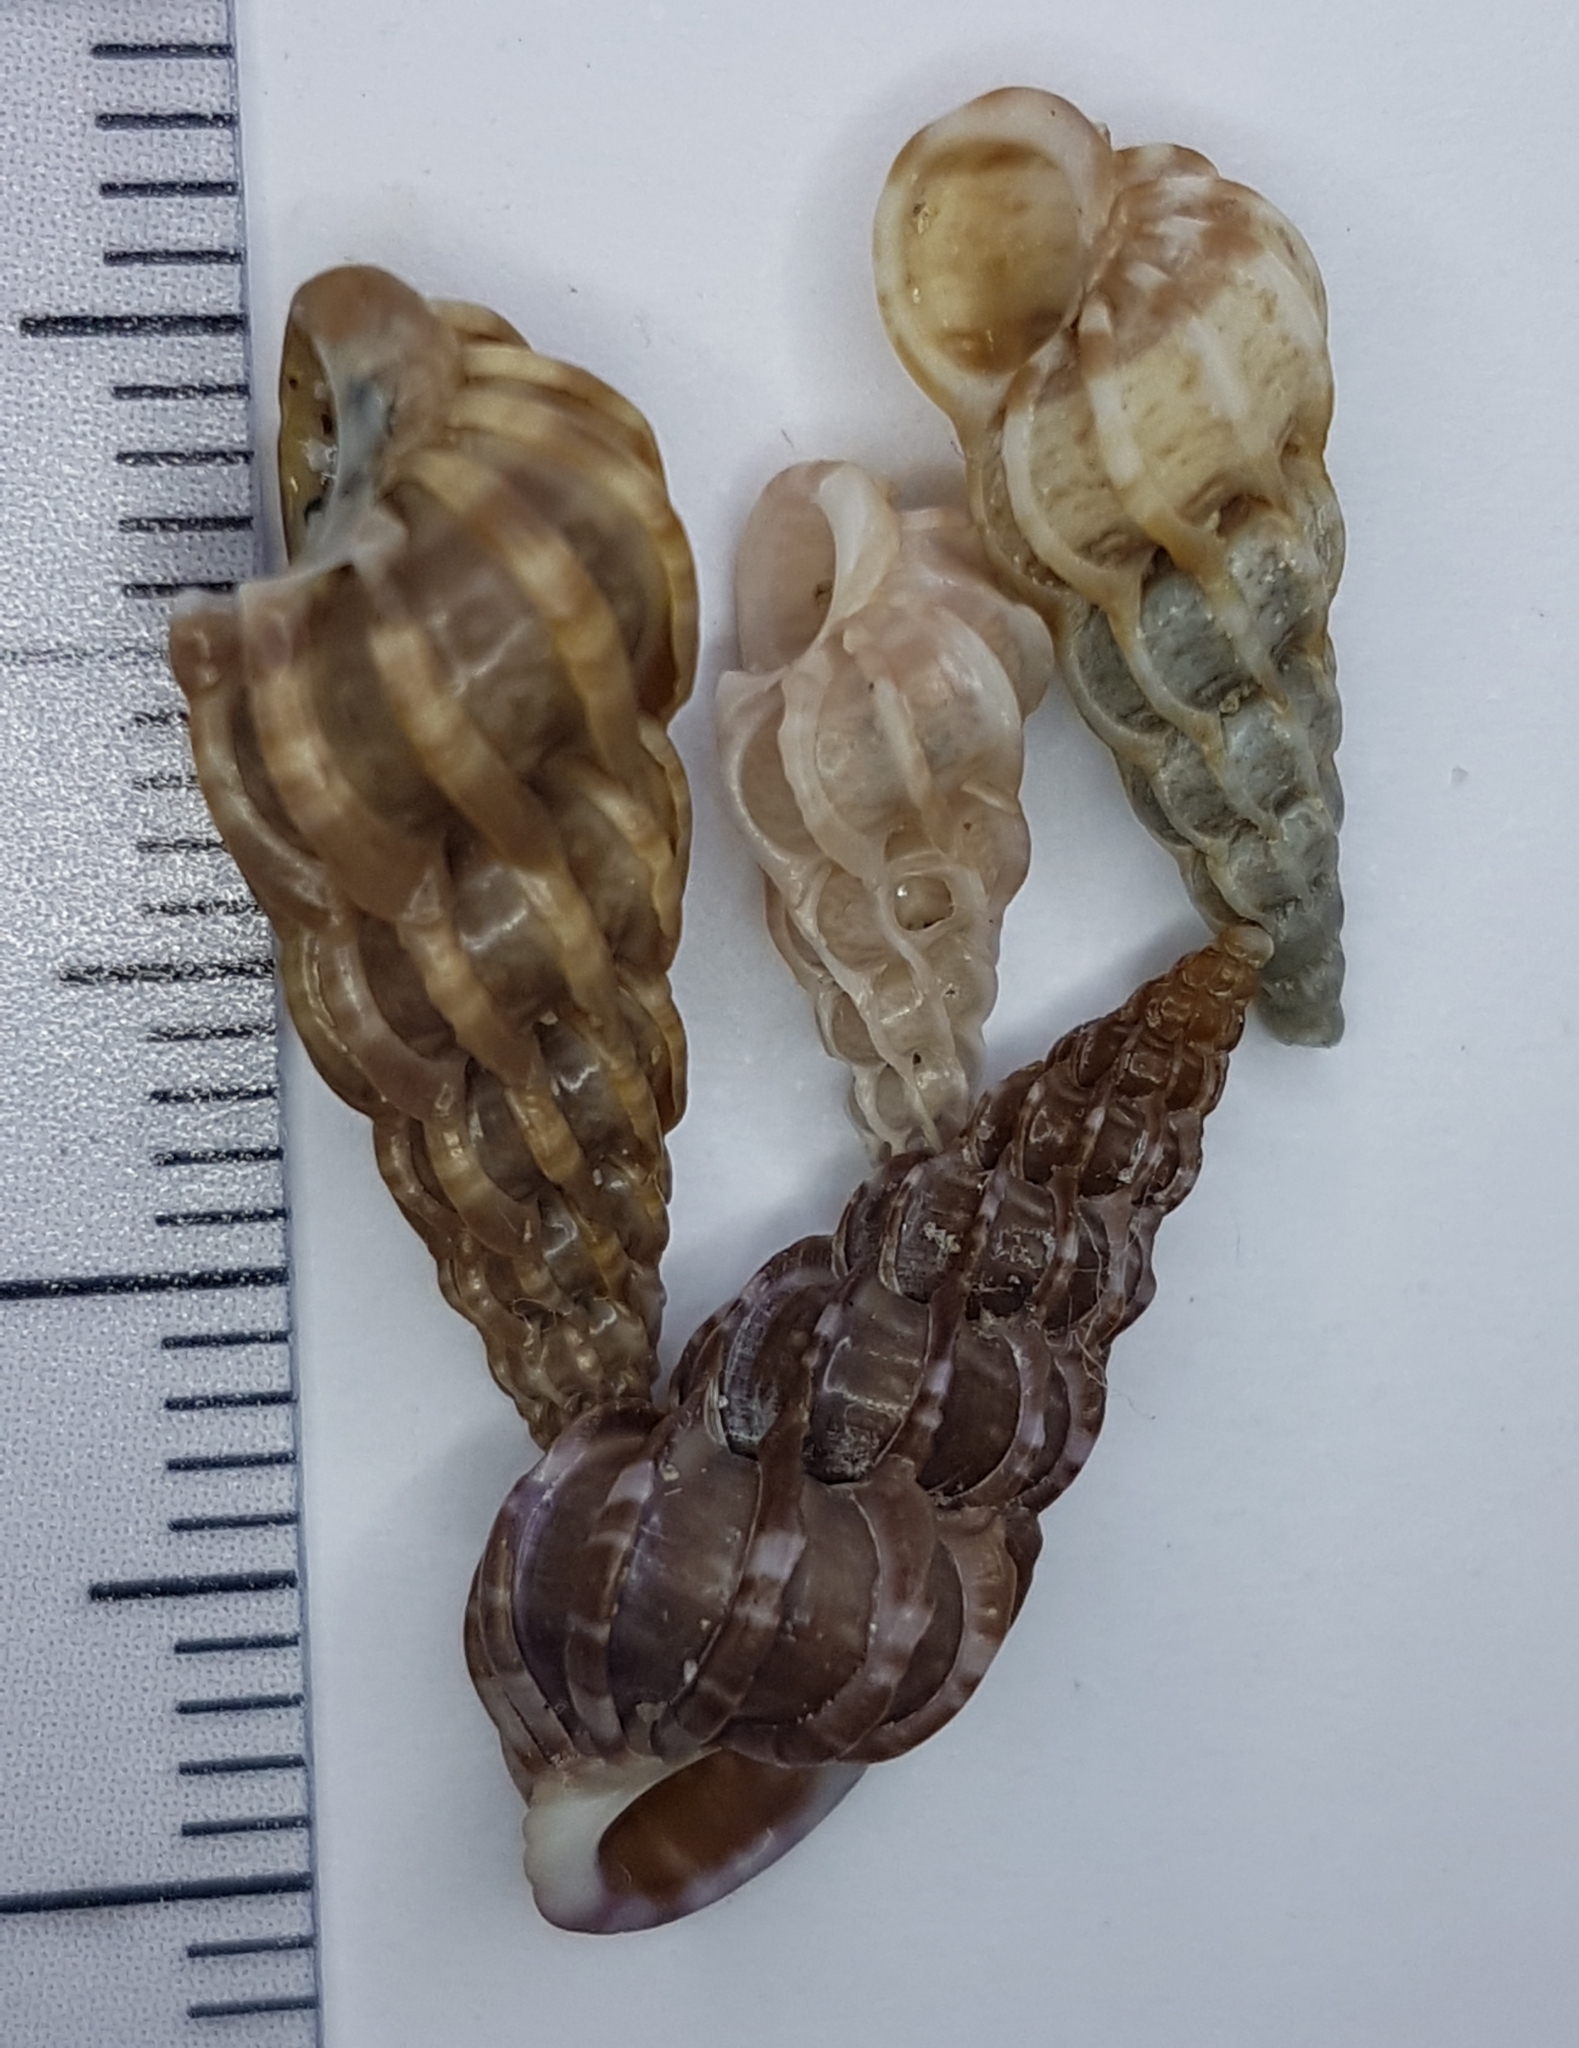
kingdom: Animalia
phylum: Mollusca
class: Gastropoda
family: Epitoniidae
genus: Epitonium
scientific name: Epitonium clathrus
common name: Common wentletrap
